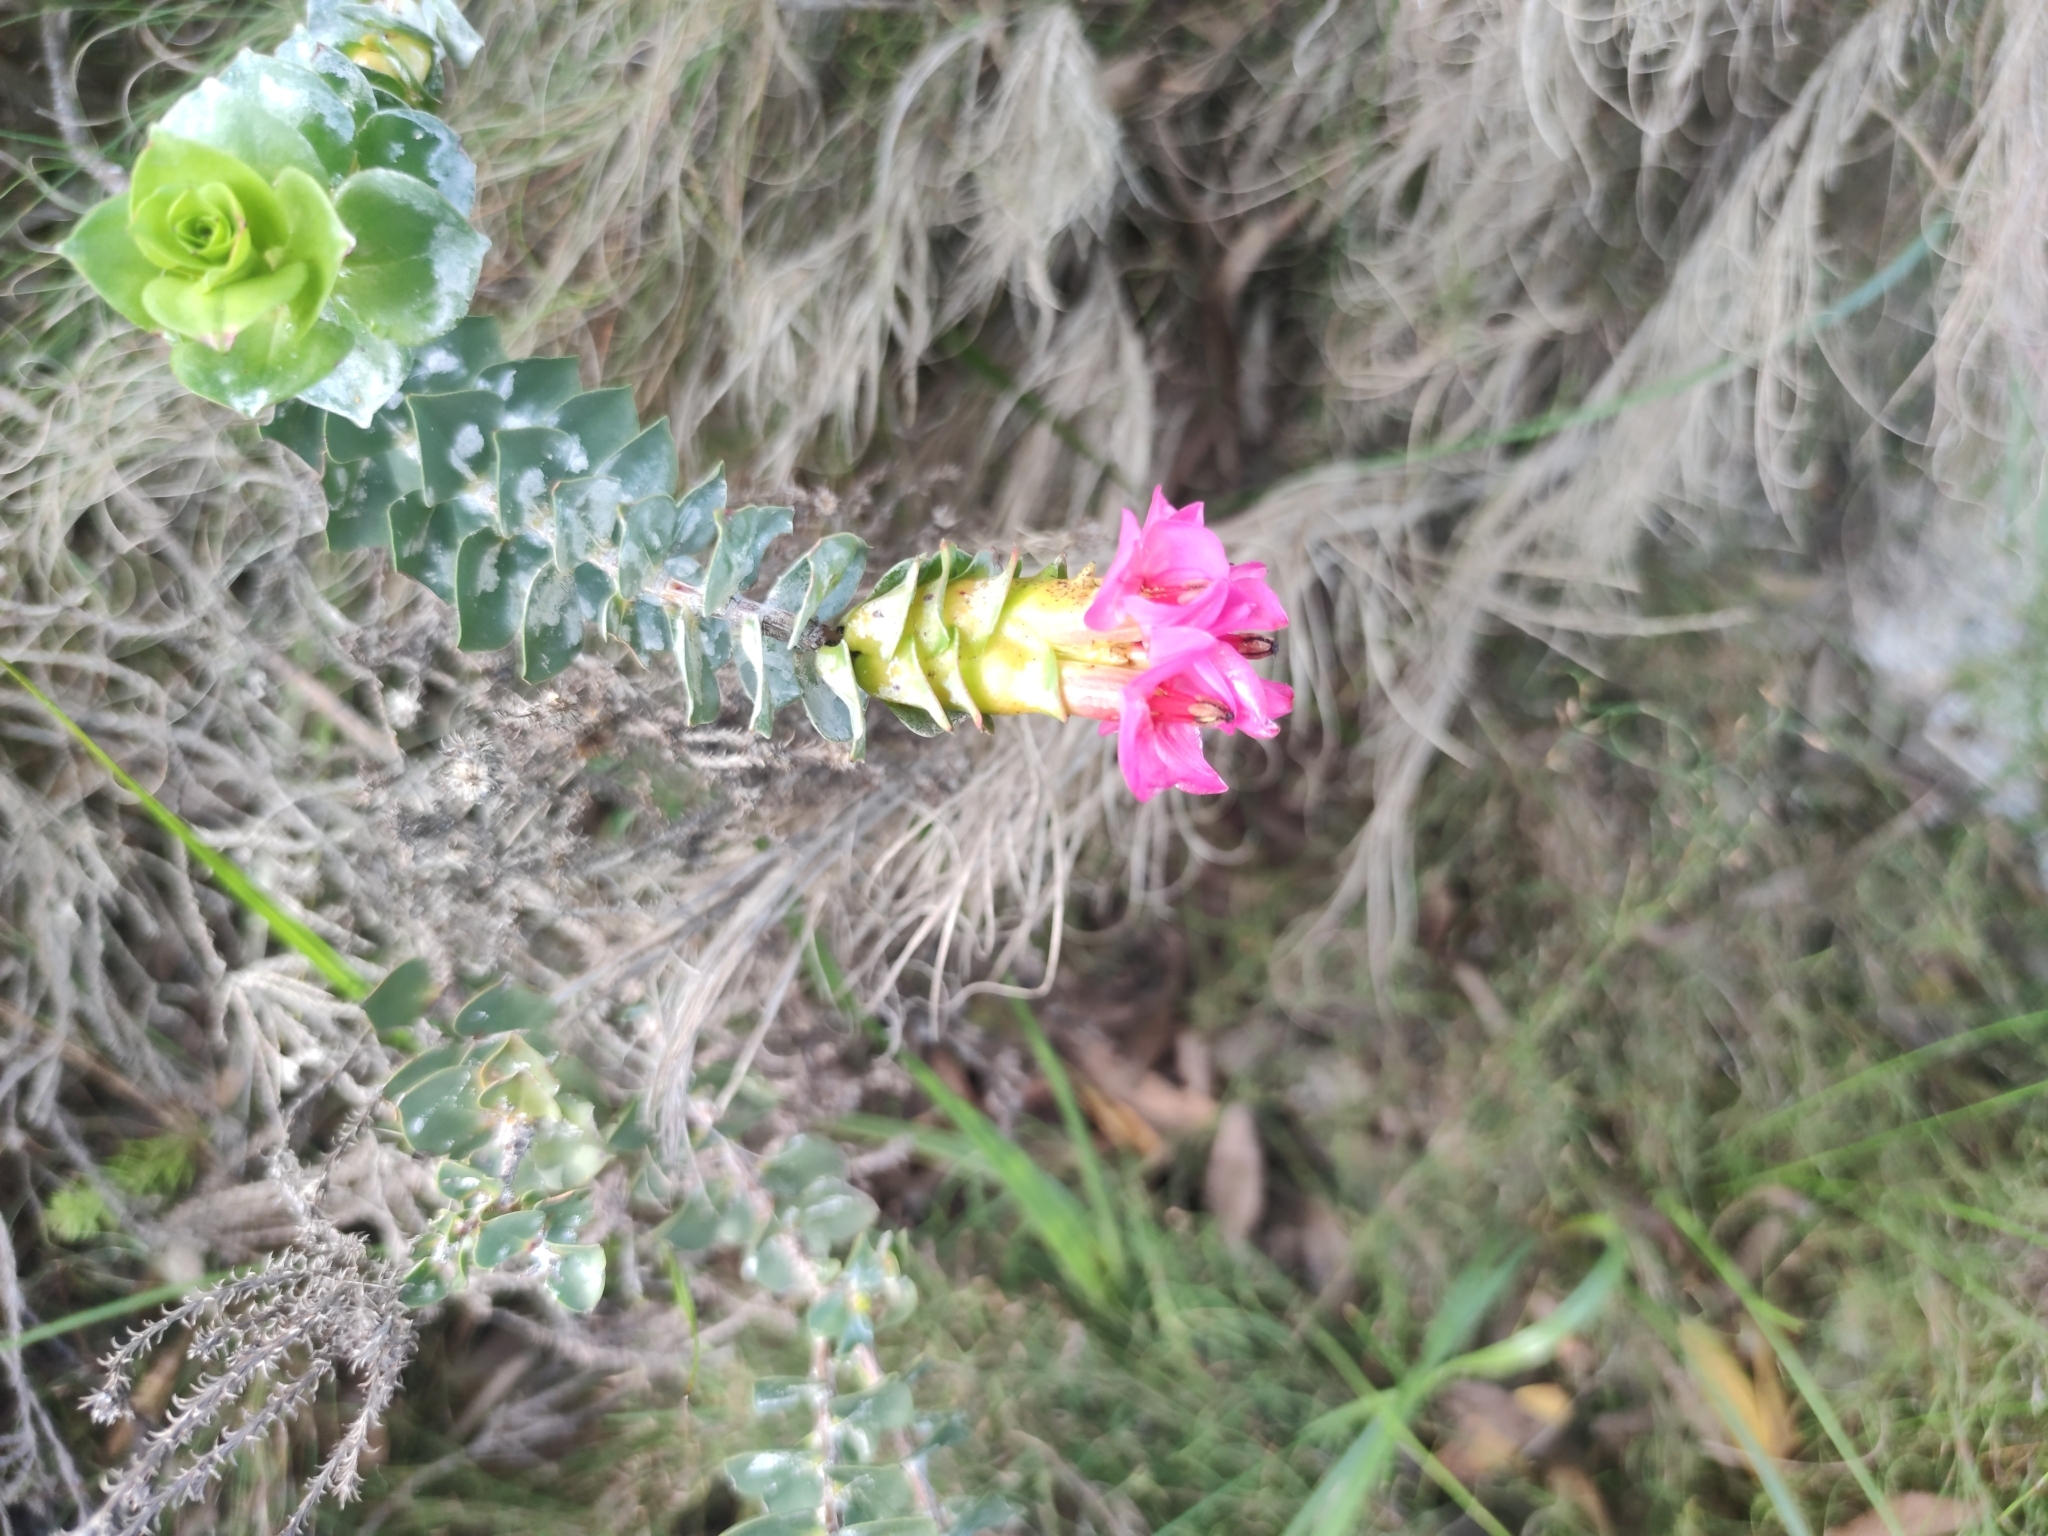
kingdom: Plantae
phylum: Tracheophyta
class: Magnoliopsida
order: Myrtales
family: Penaeaceae
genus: Saltera
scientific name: Saltera sarcocolla
